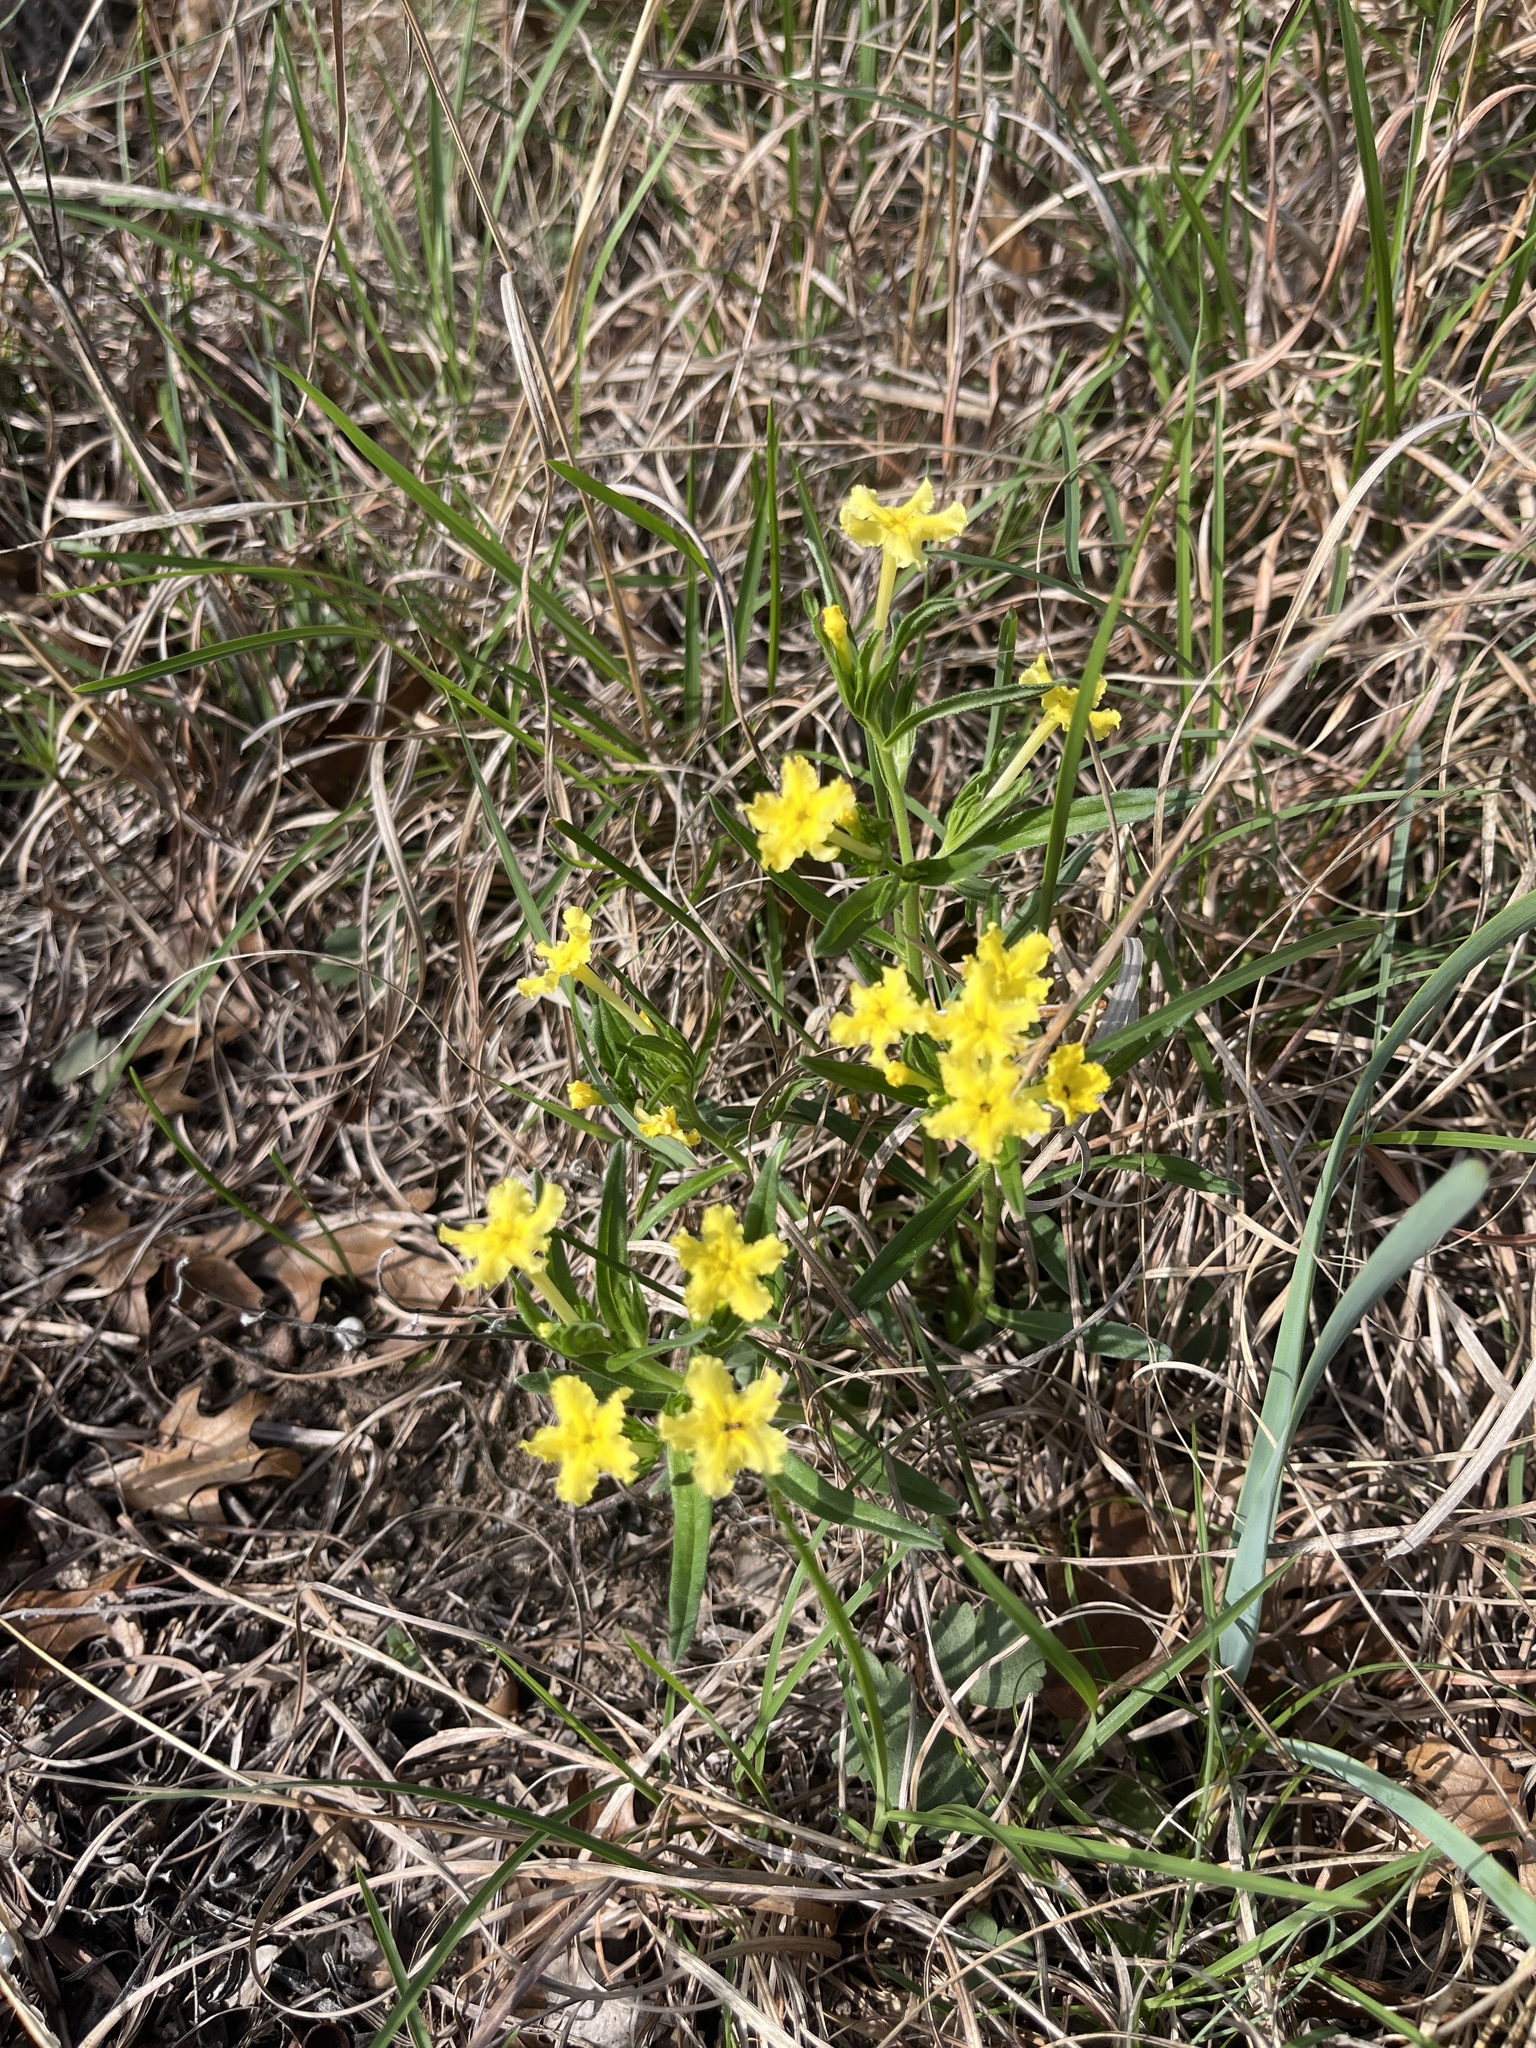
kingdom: Plantae
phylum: Tracheophyta
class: Magnoliopsida
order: Boraginales
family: Boraginaceae
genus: Lithospermum
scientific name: Lithospermum incisum
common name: Fringed gromwell
